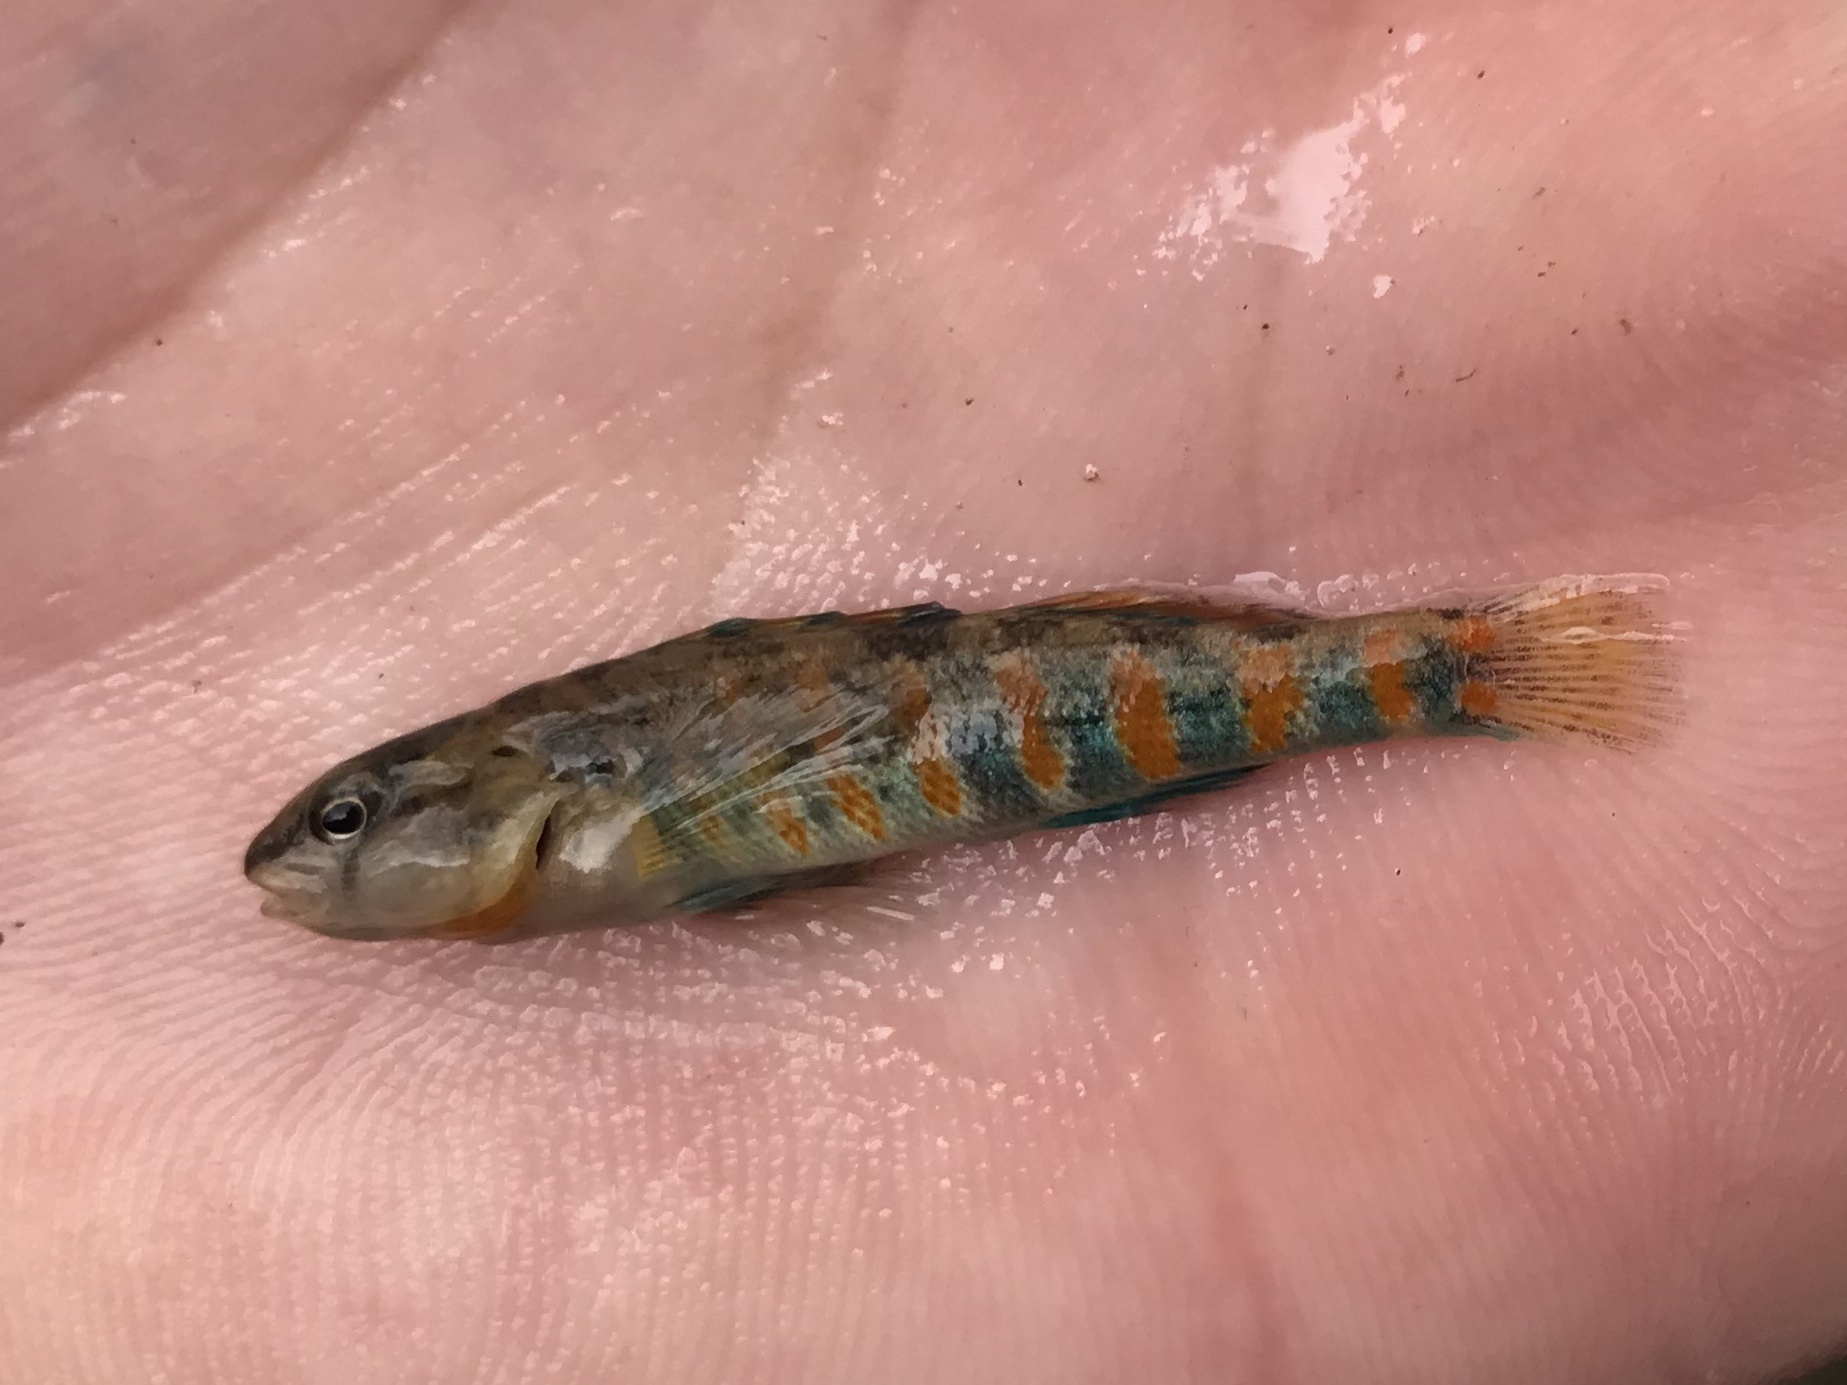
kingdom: Animalia
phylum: Chordata
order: Perciformes
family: Percidae
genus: Etheostoma
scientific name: Etheostoma spectabile
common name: Orangethroat darter
